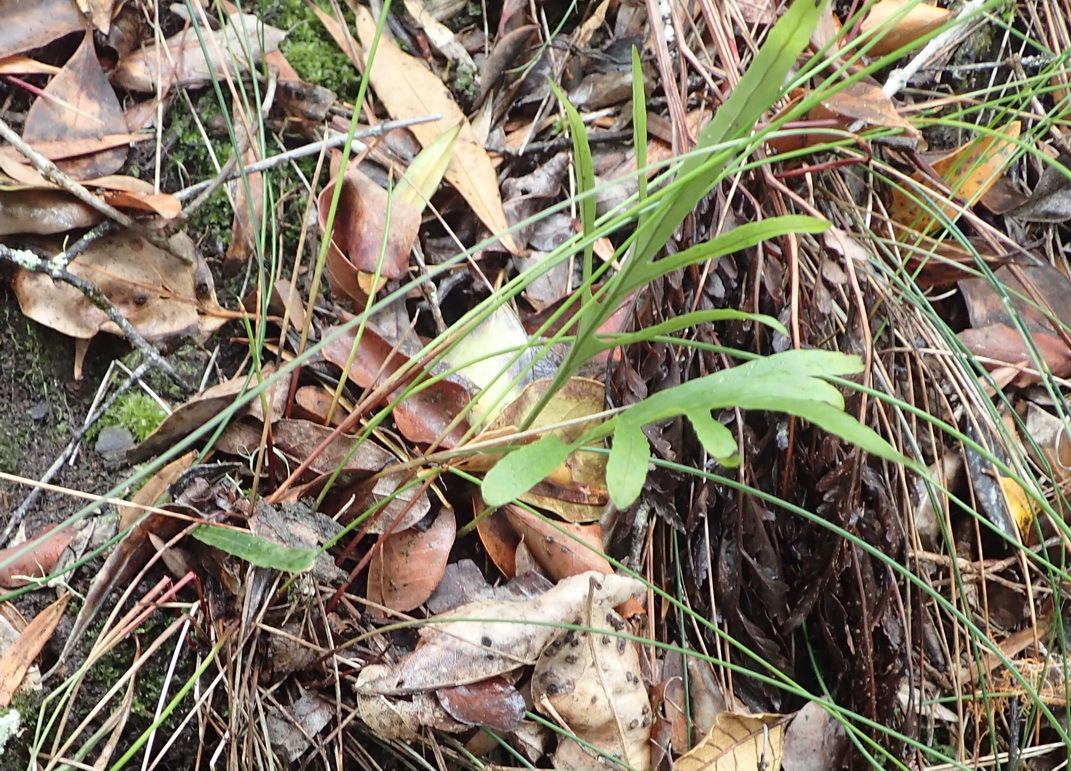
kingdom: Plantae
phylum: Tracheophyta
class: Polypodiopsida
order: Polypodiales
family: Polypodiaceae
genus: Polypodium
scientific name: Polypodium ensiforme
